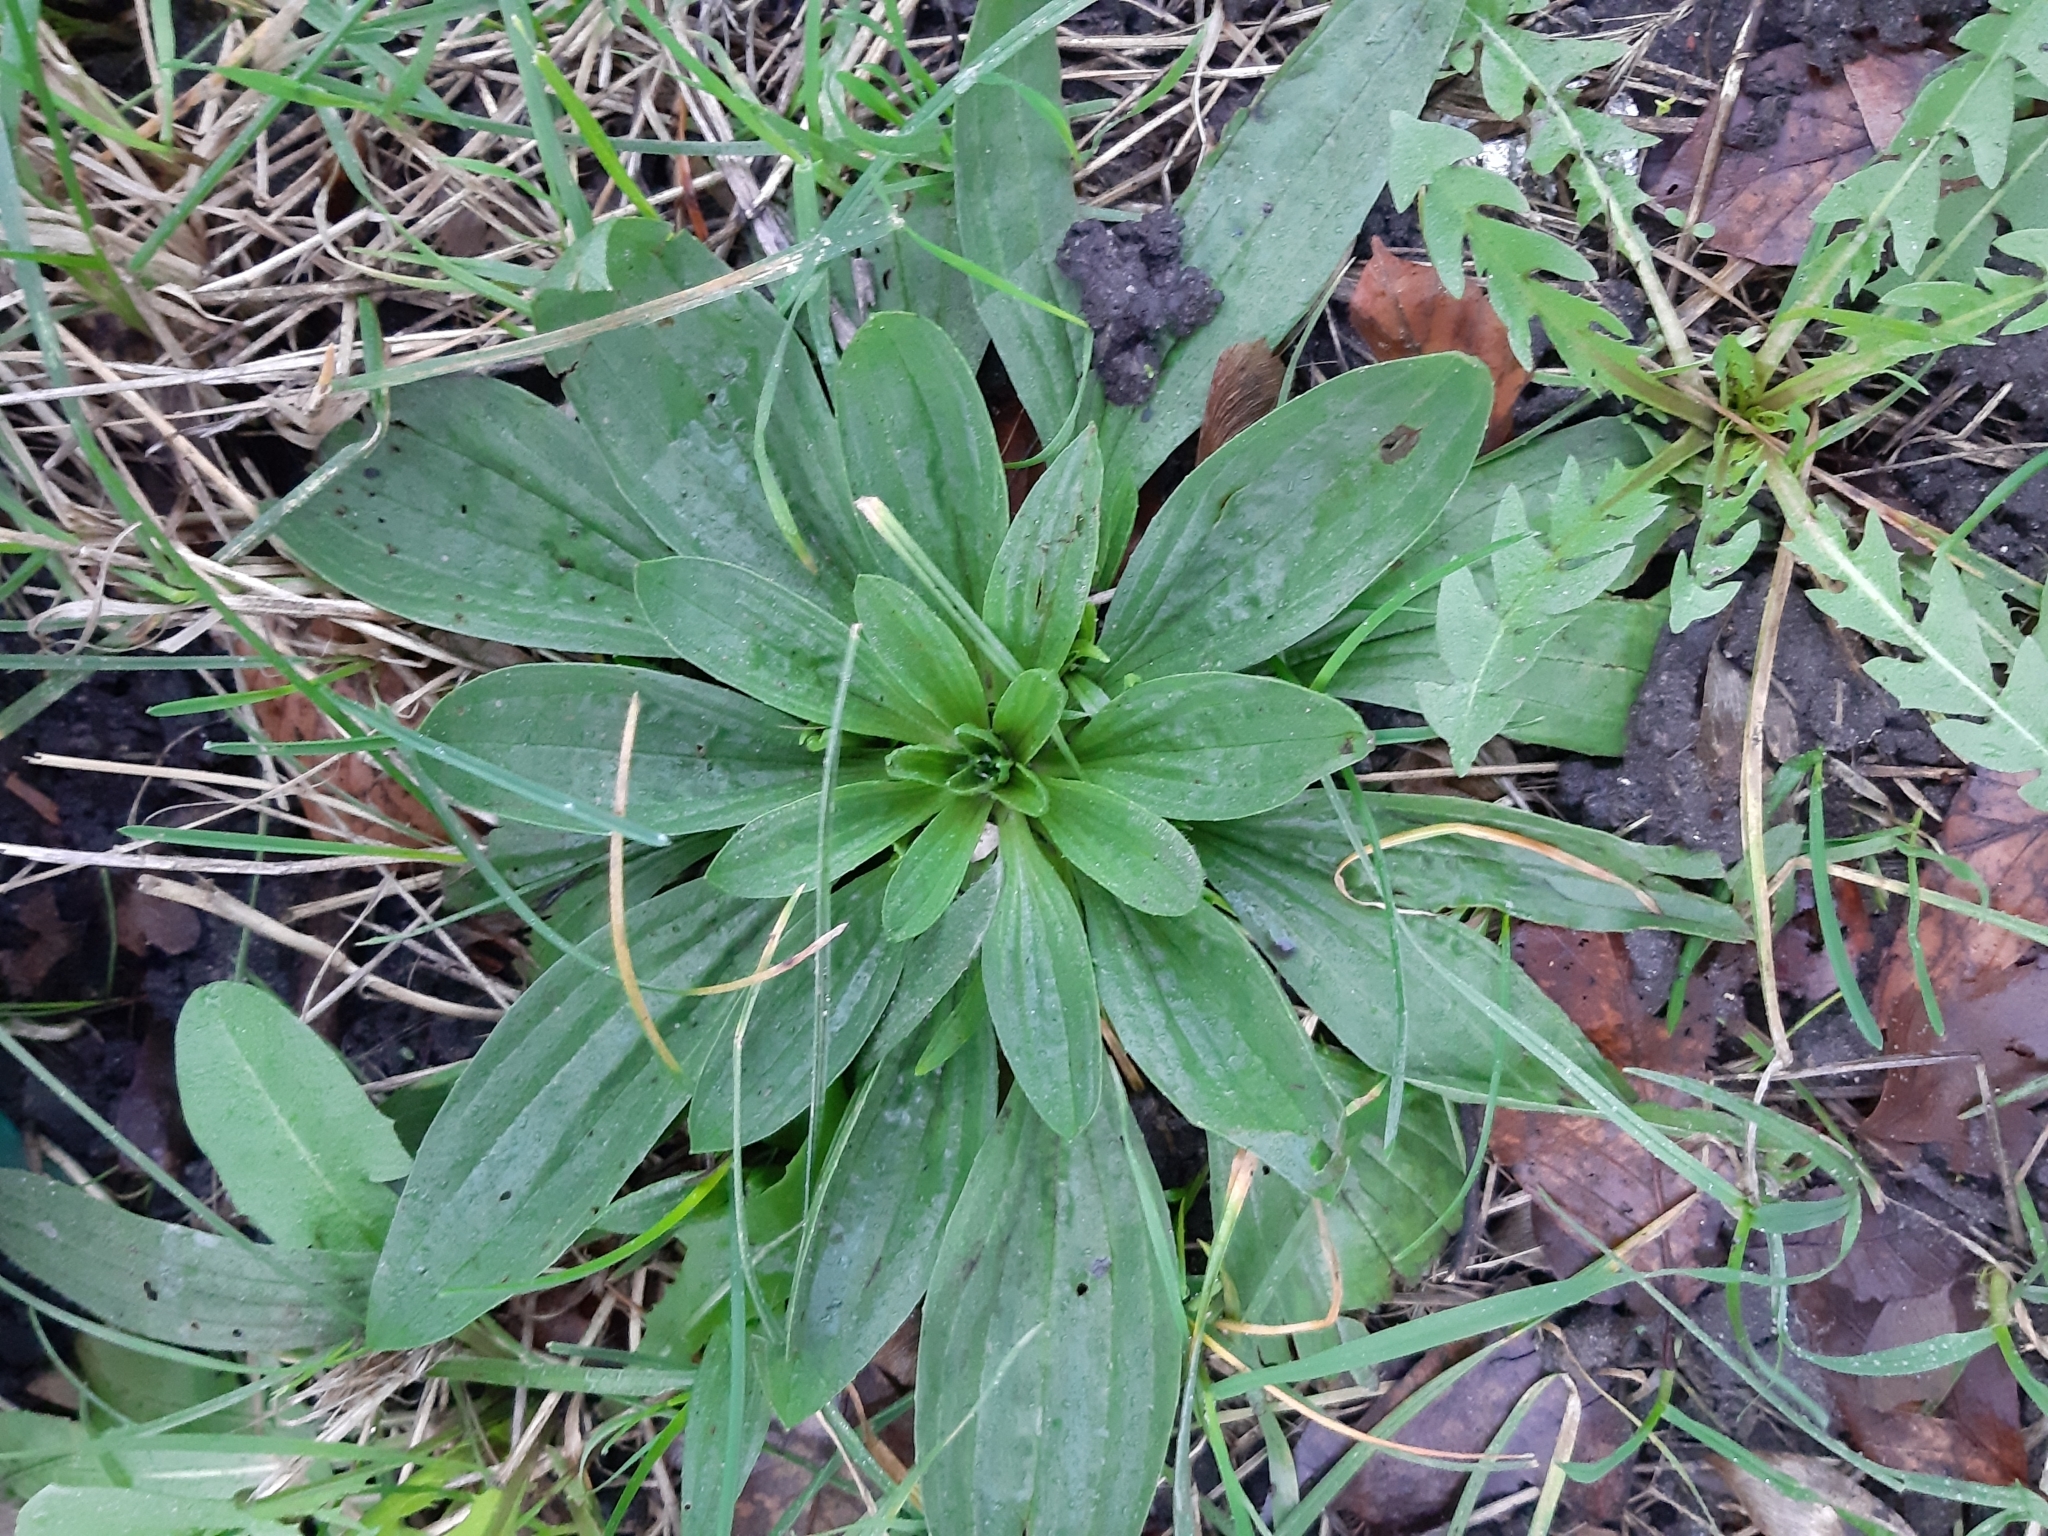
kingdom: Plantae
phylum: Tracheophyta
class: Magnoliopsida
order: Lamiales
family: Plantaginaceae
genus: Plantago
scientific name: Plantago lanceolata
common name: Ribwort plantain
